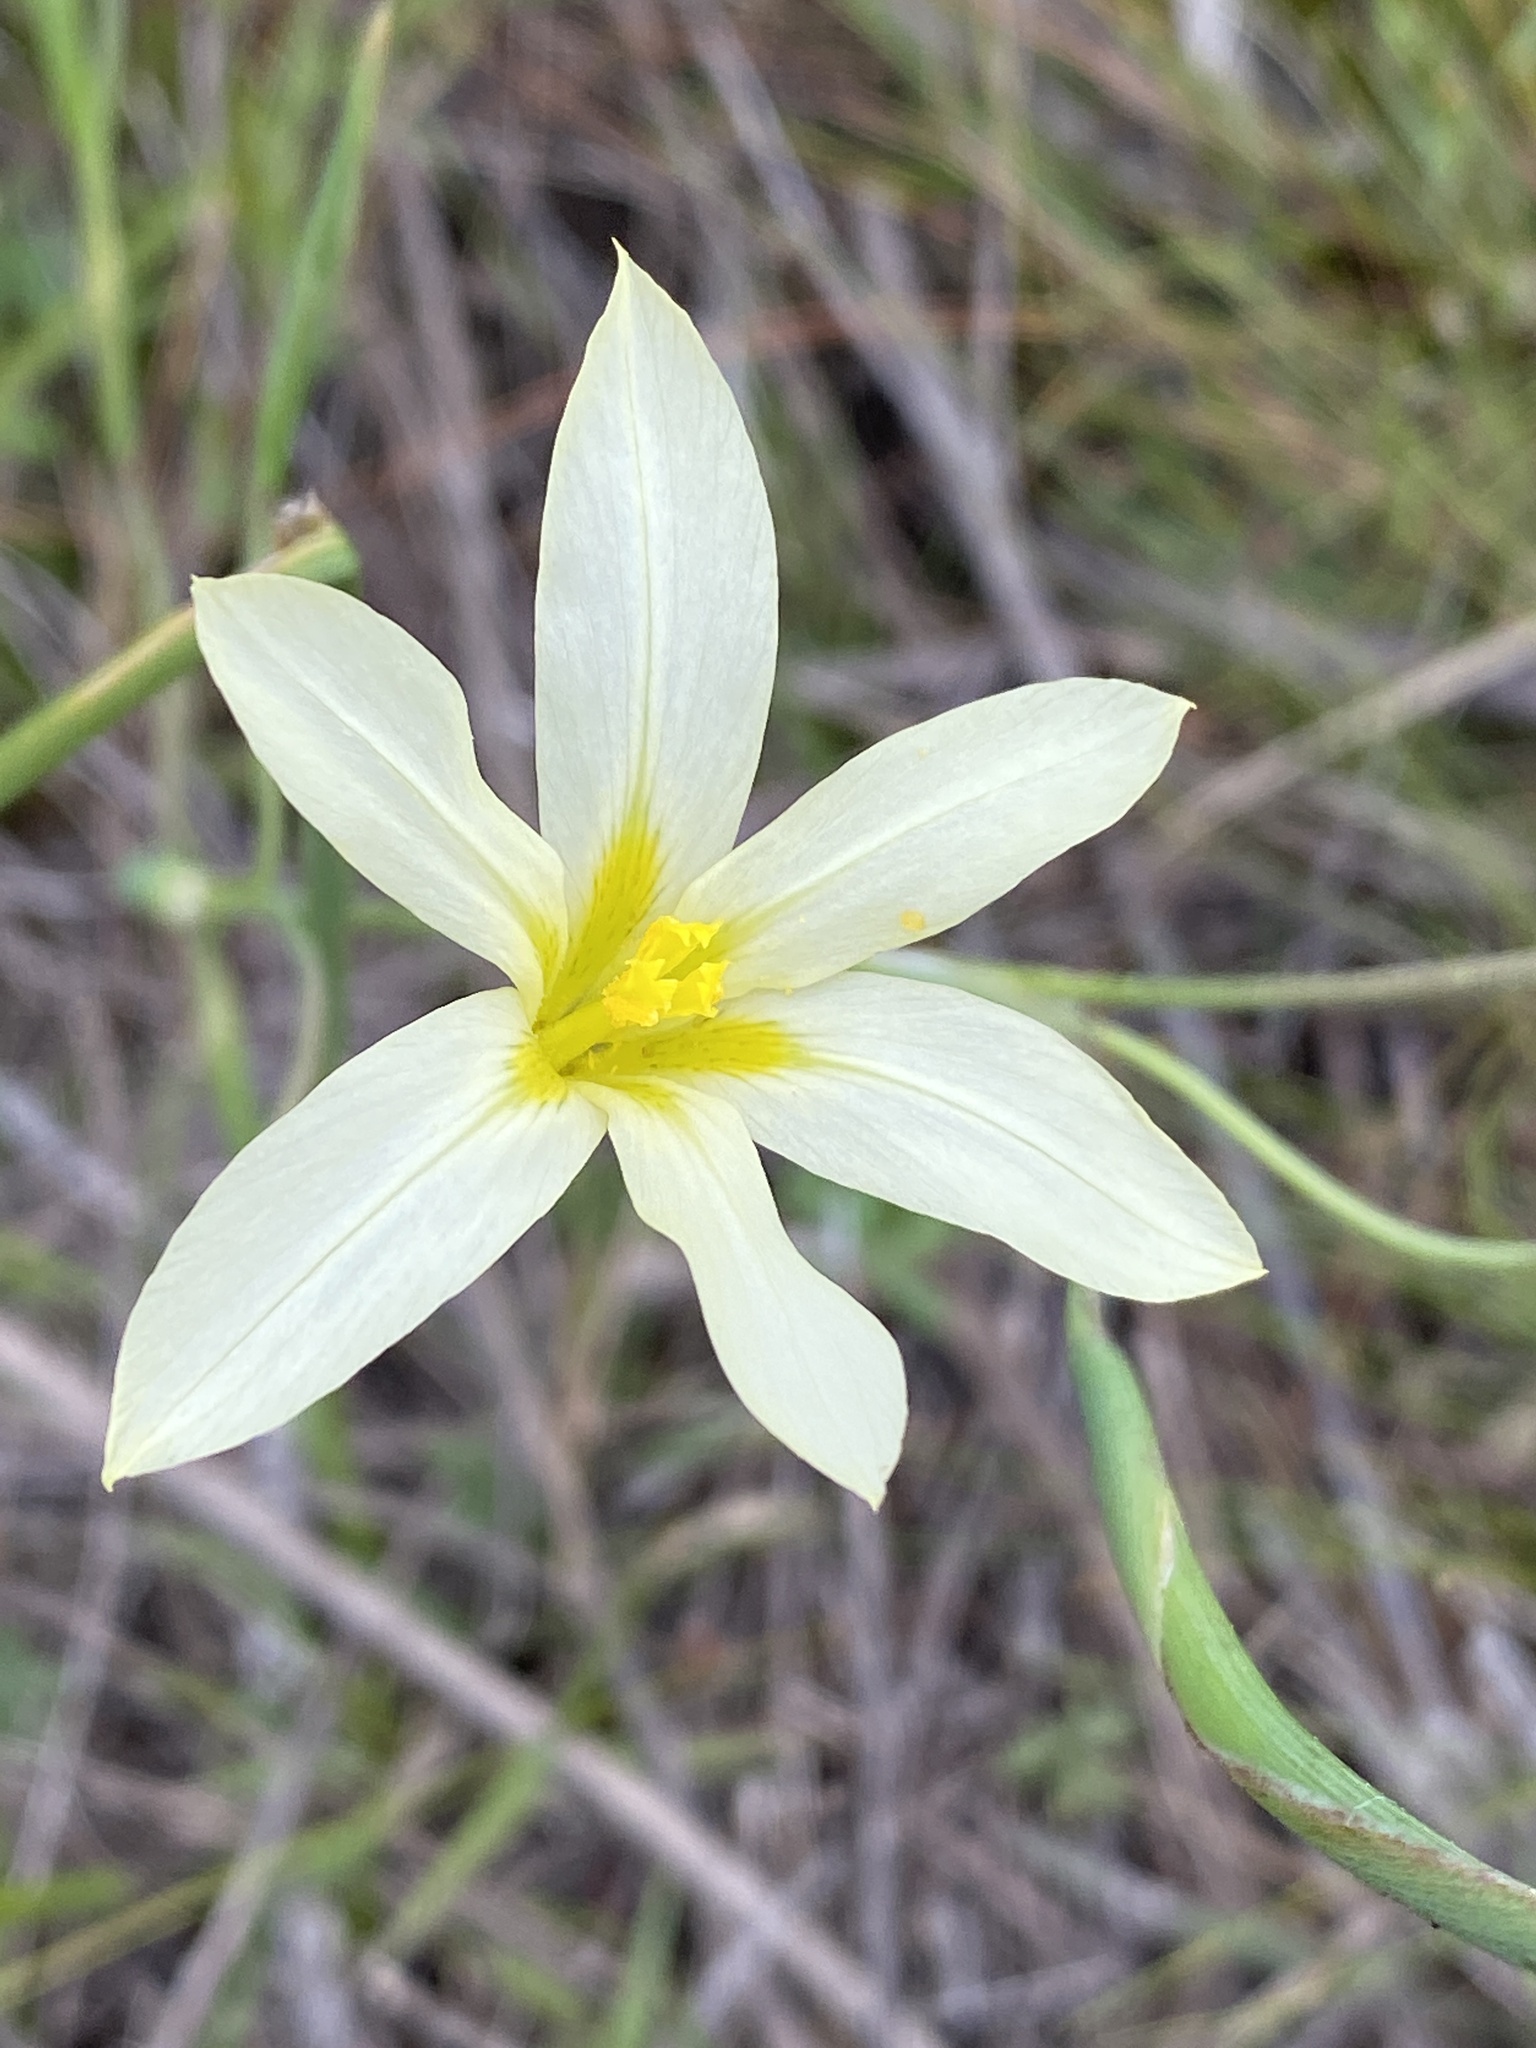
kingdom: Plantae
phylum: Tracheophyta
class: Liliopsida
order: Asparagales
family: Iridaceae
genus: Moraea
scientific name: Moraea bulbillifera
